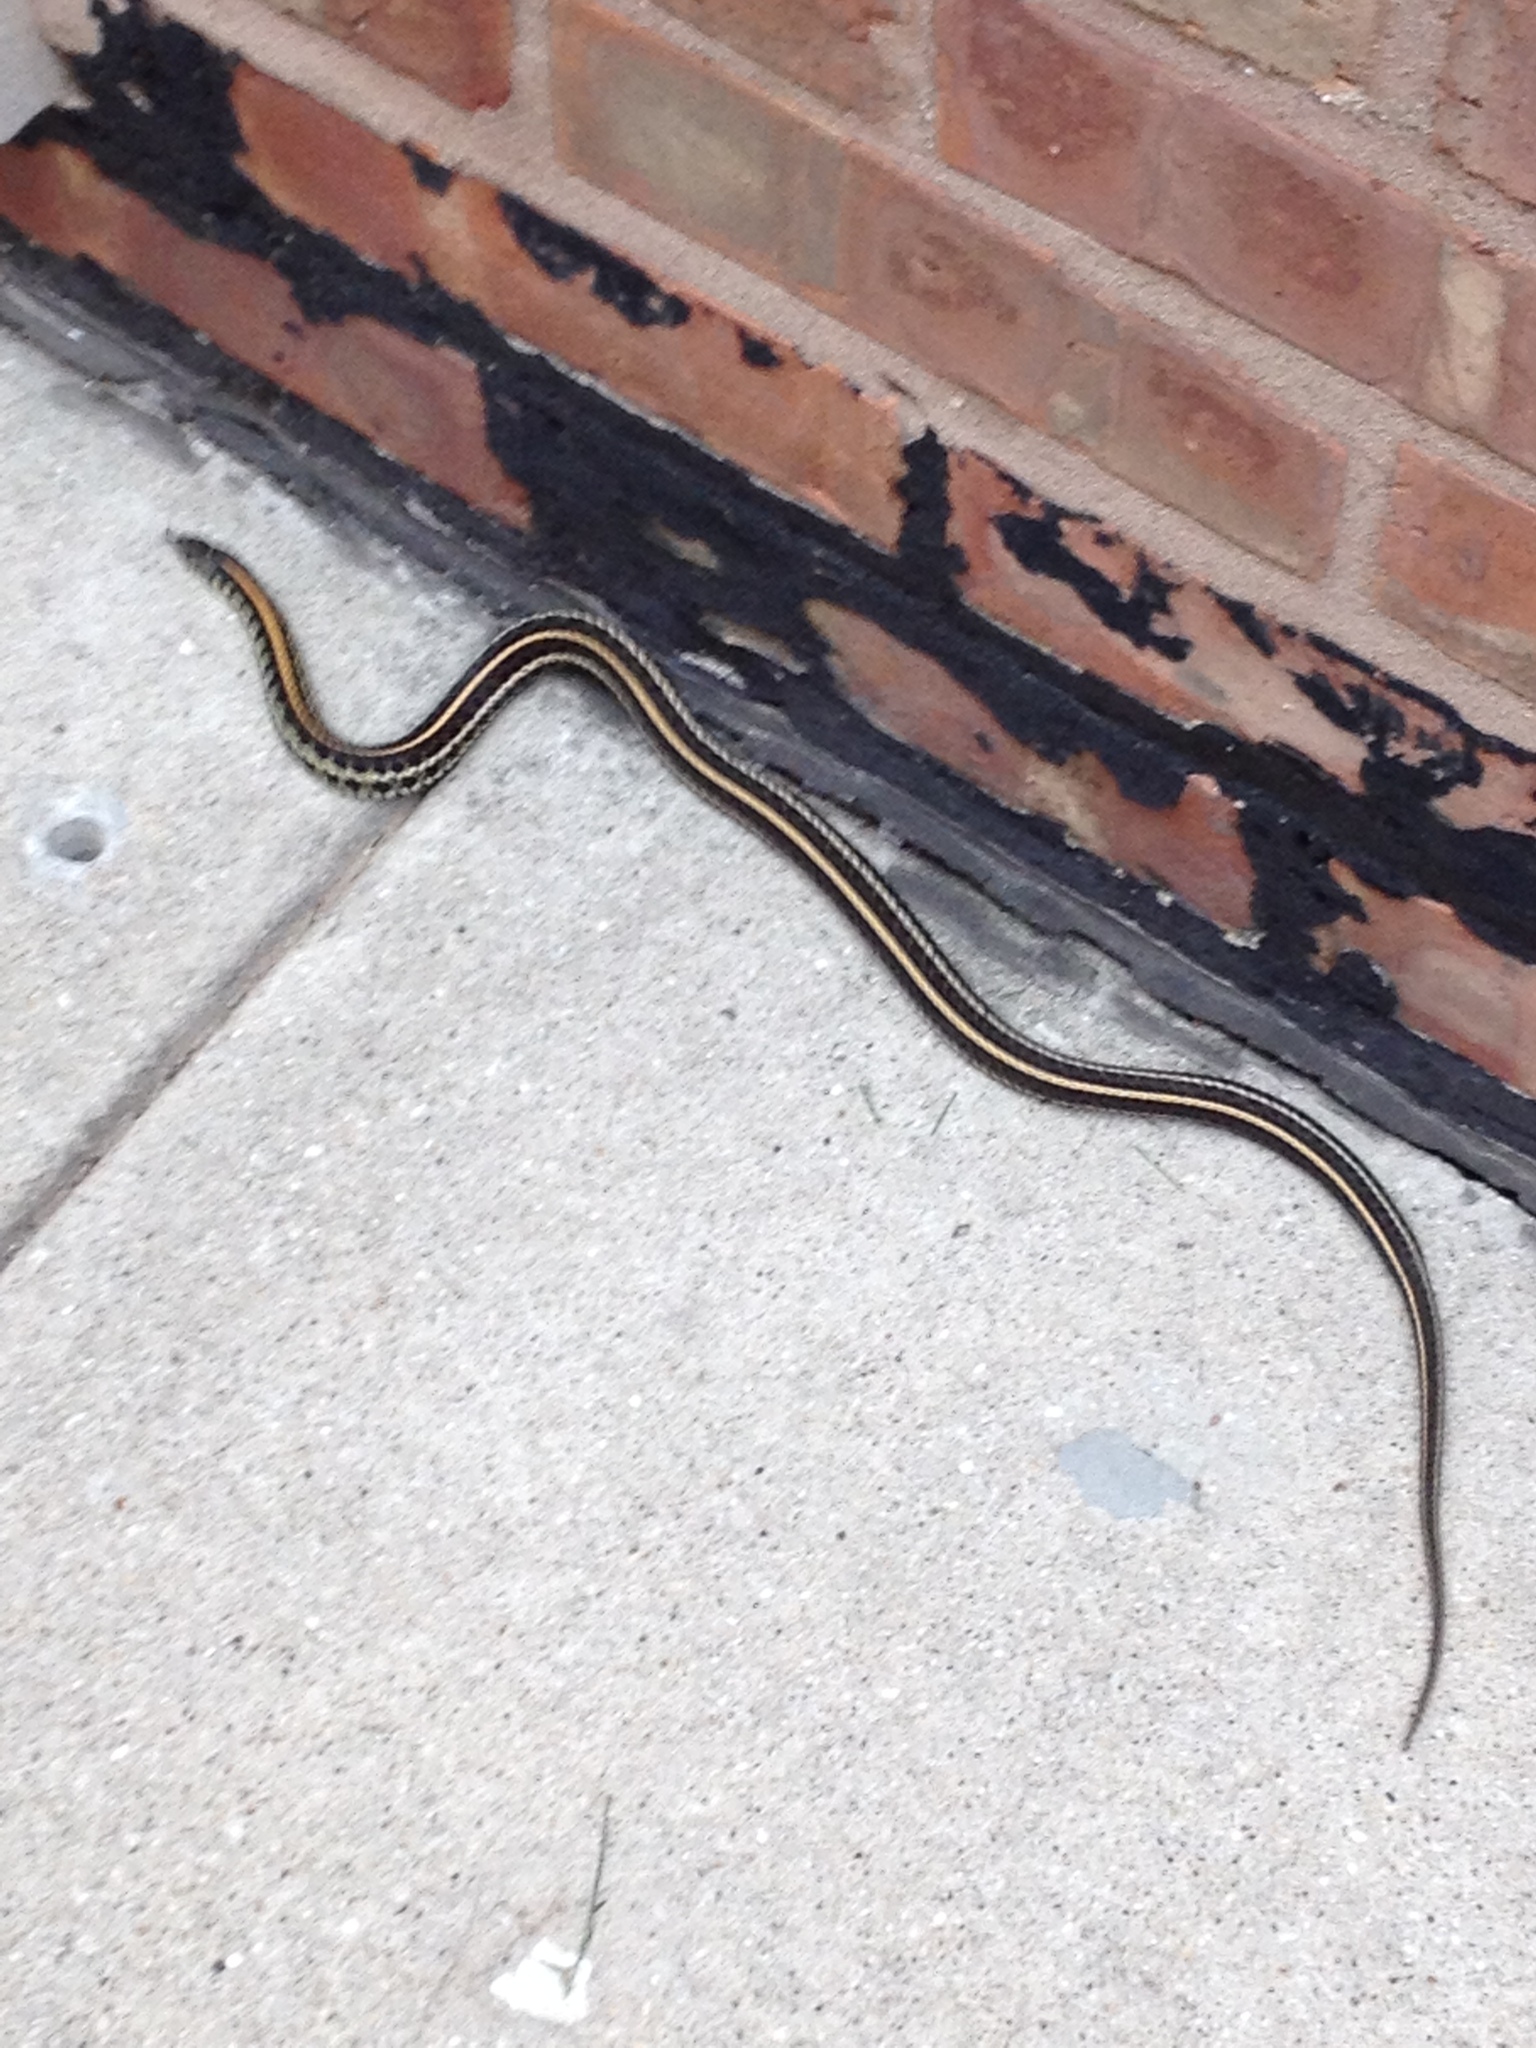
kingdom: Animalia
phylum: Chordata
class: Squamata
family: Colubridae
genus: Thamnophis
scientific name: Thamnophis radix
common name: Plains garter snake
